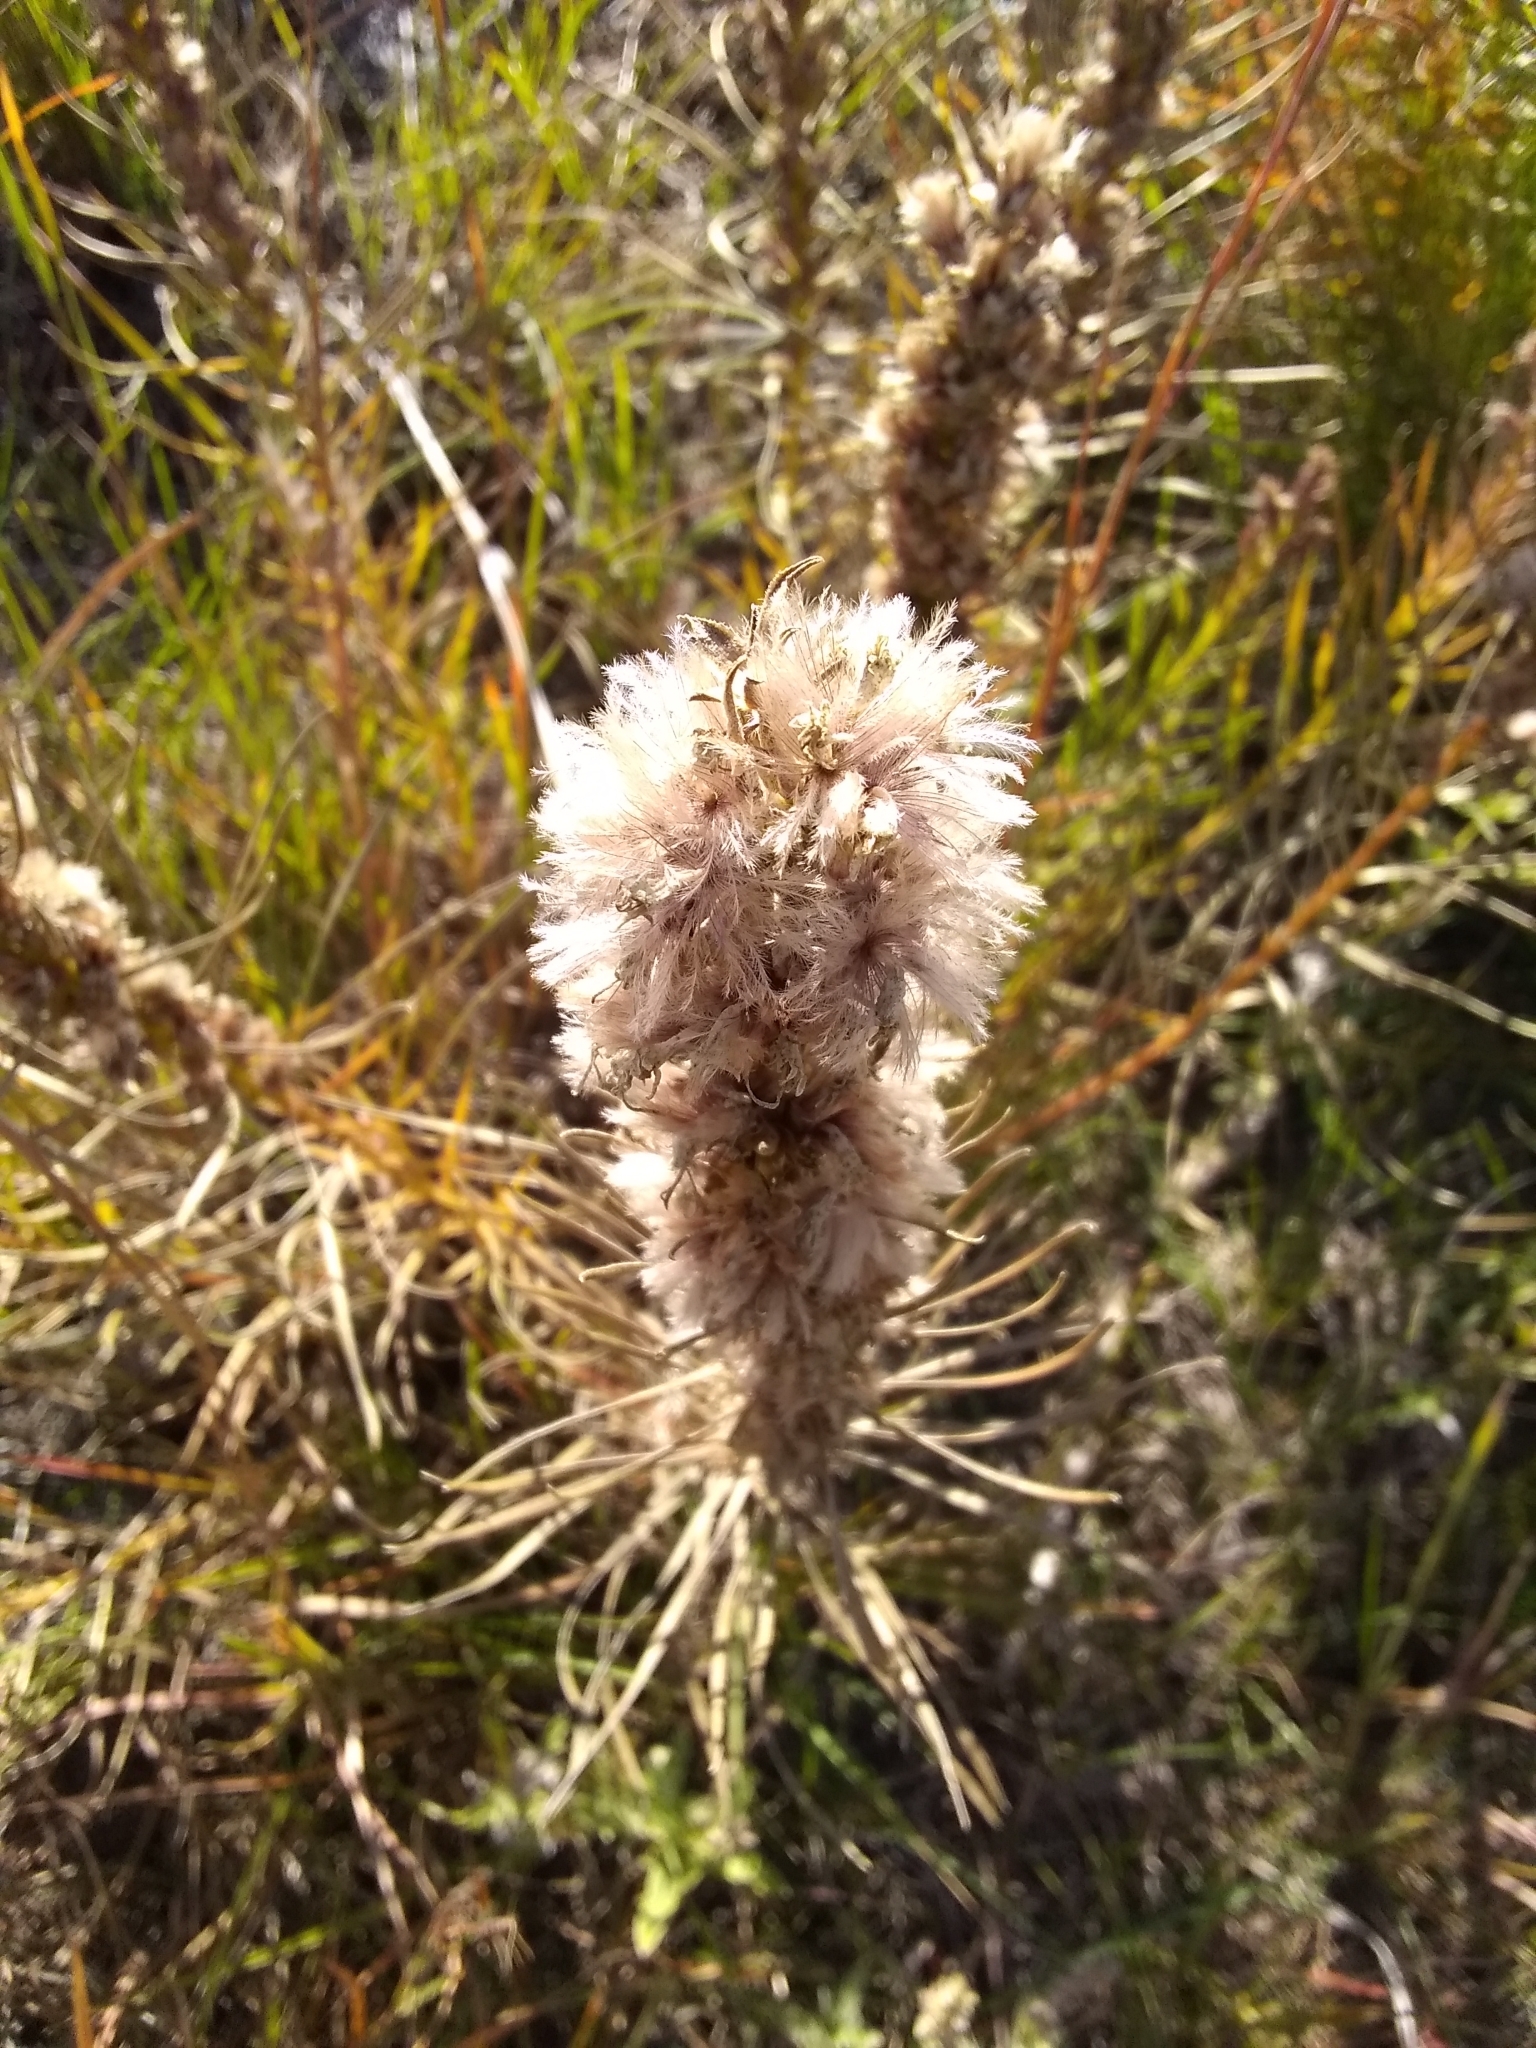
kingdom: Plantae
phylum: Tracheophyta
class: Magnoliopsida
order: Asterales
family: Asteraceae
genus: Liatris
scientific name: Liatris punctata
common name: Dotted gayfeather
